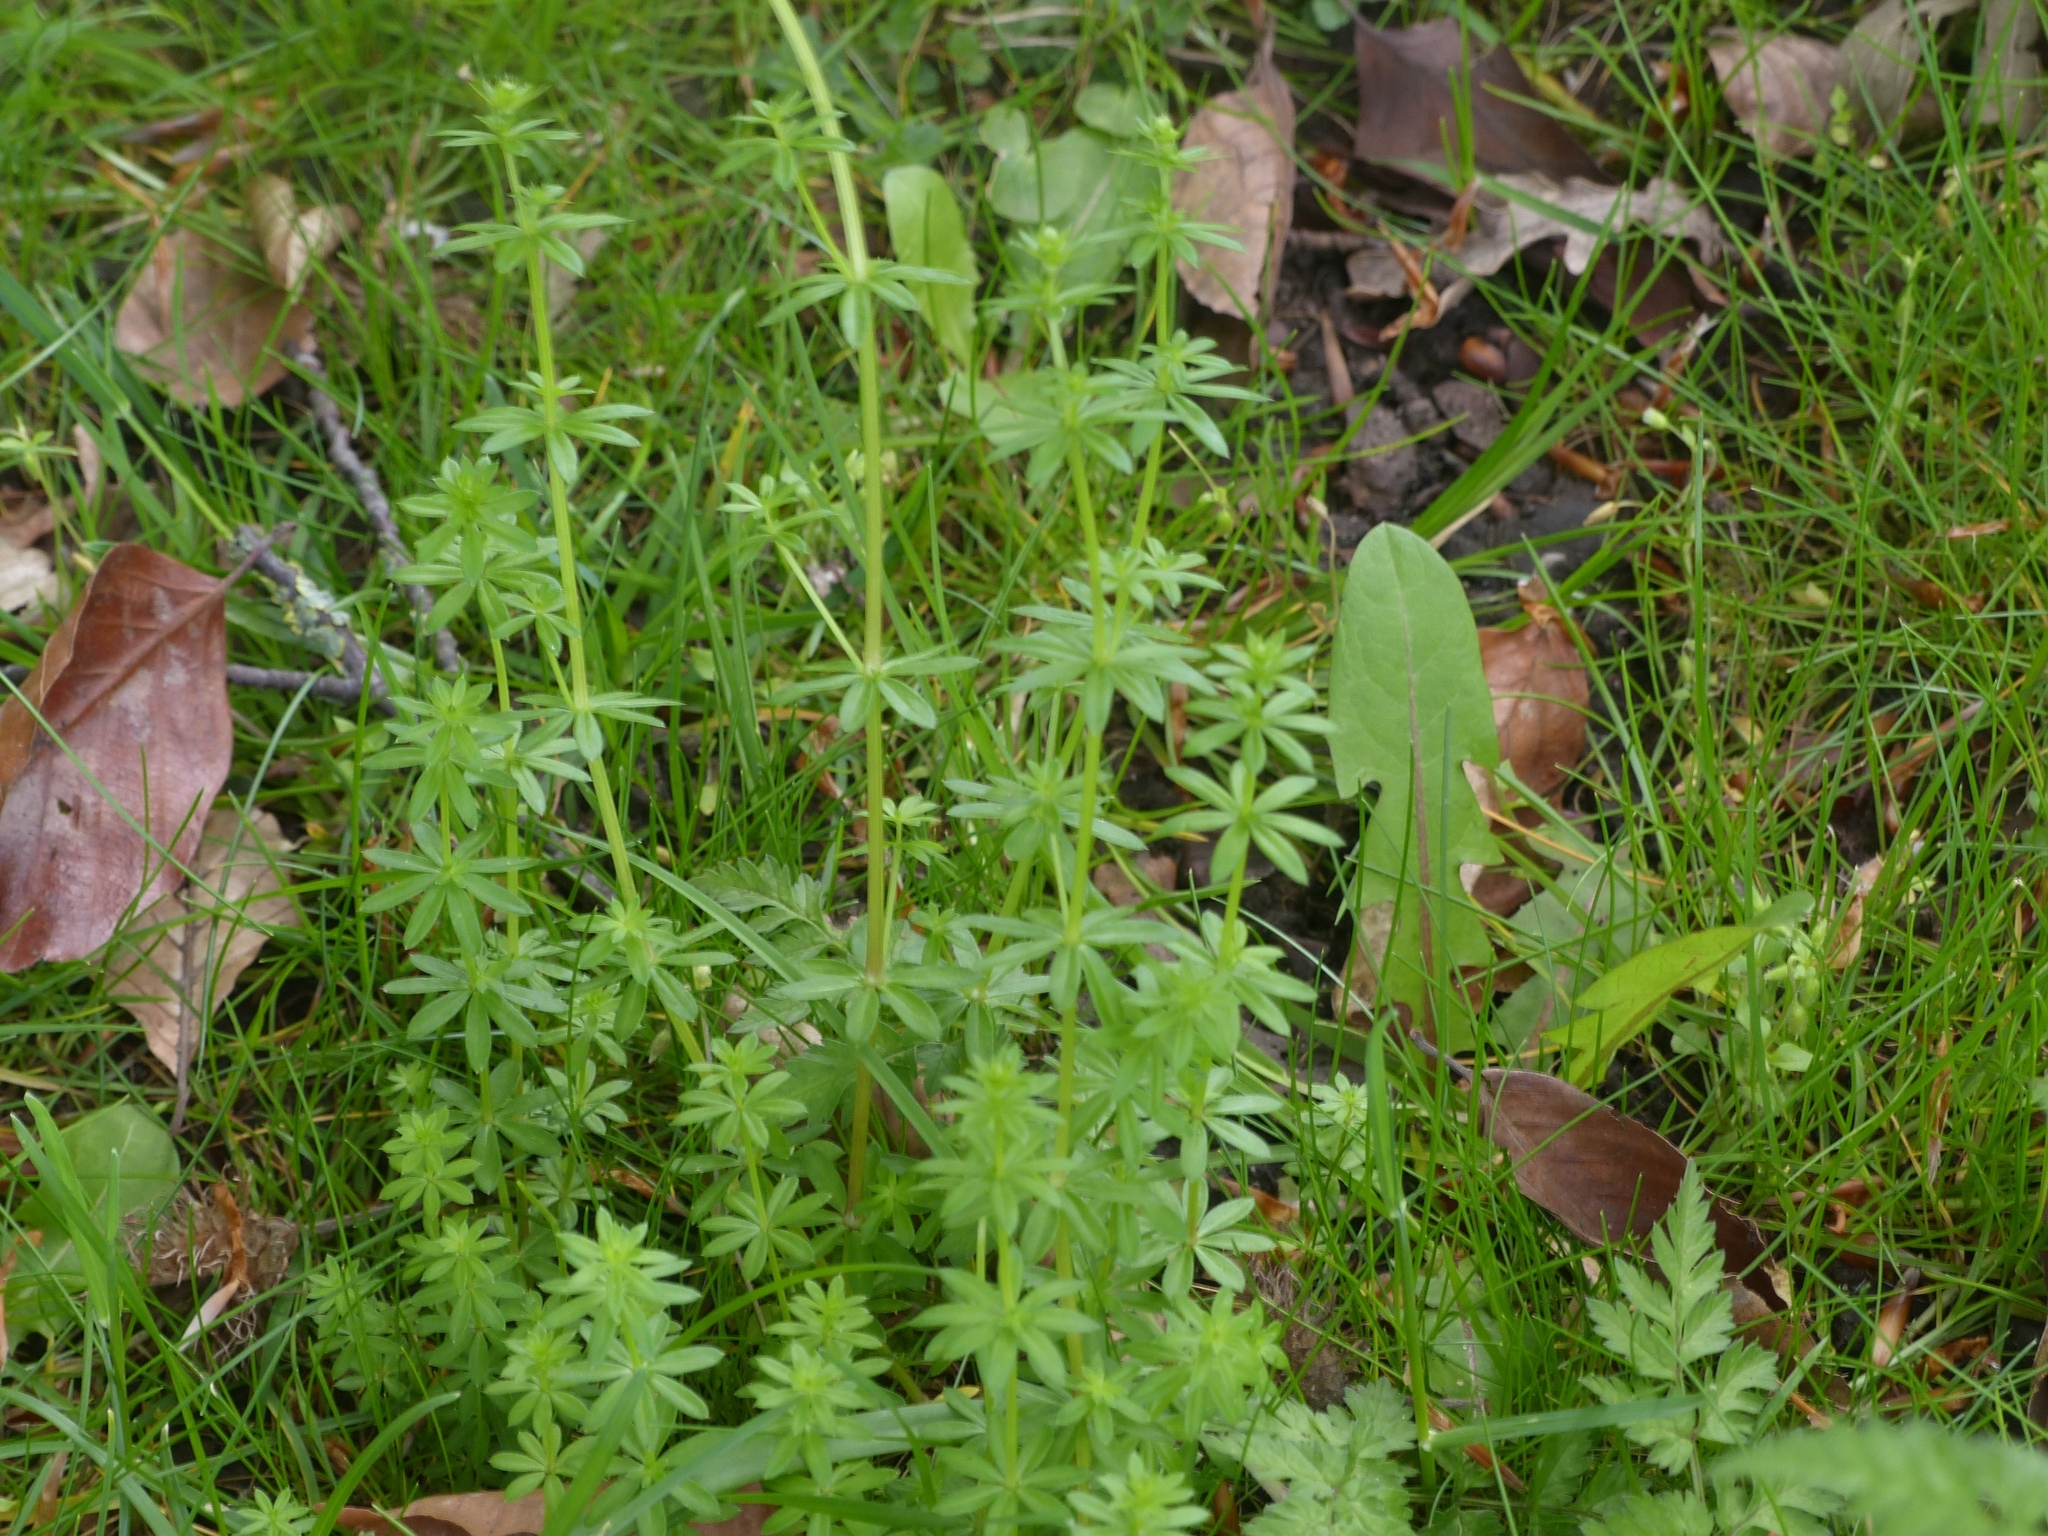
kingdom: Plantae
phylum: Tracheophyta
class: Magnoliopsida
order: Gentianales
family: Rubiaceae
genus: Galium
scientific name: Galium mollugo
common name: Hedge bedstraw
